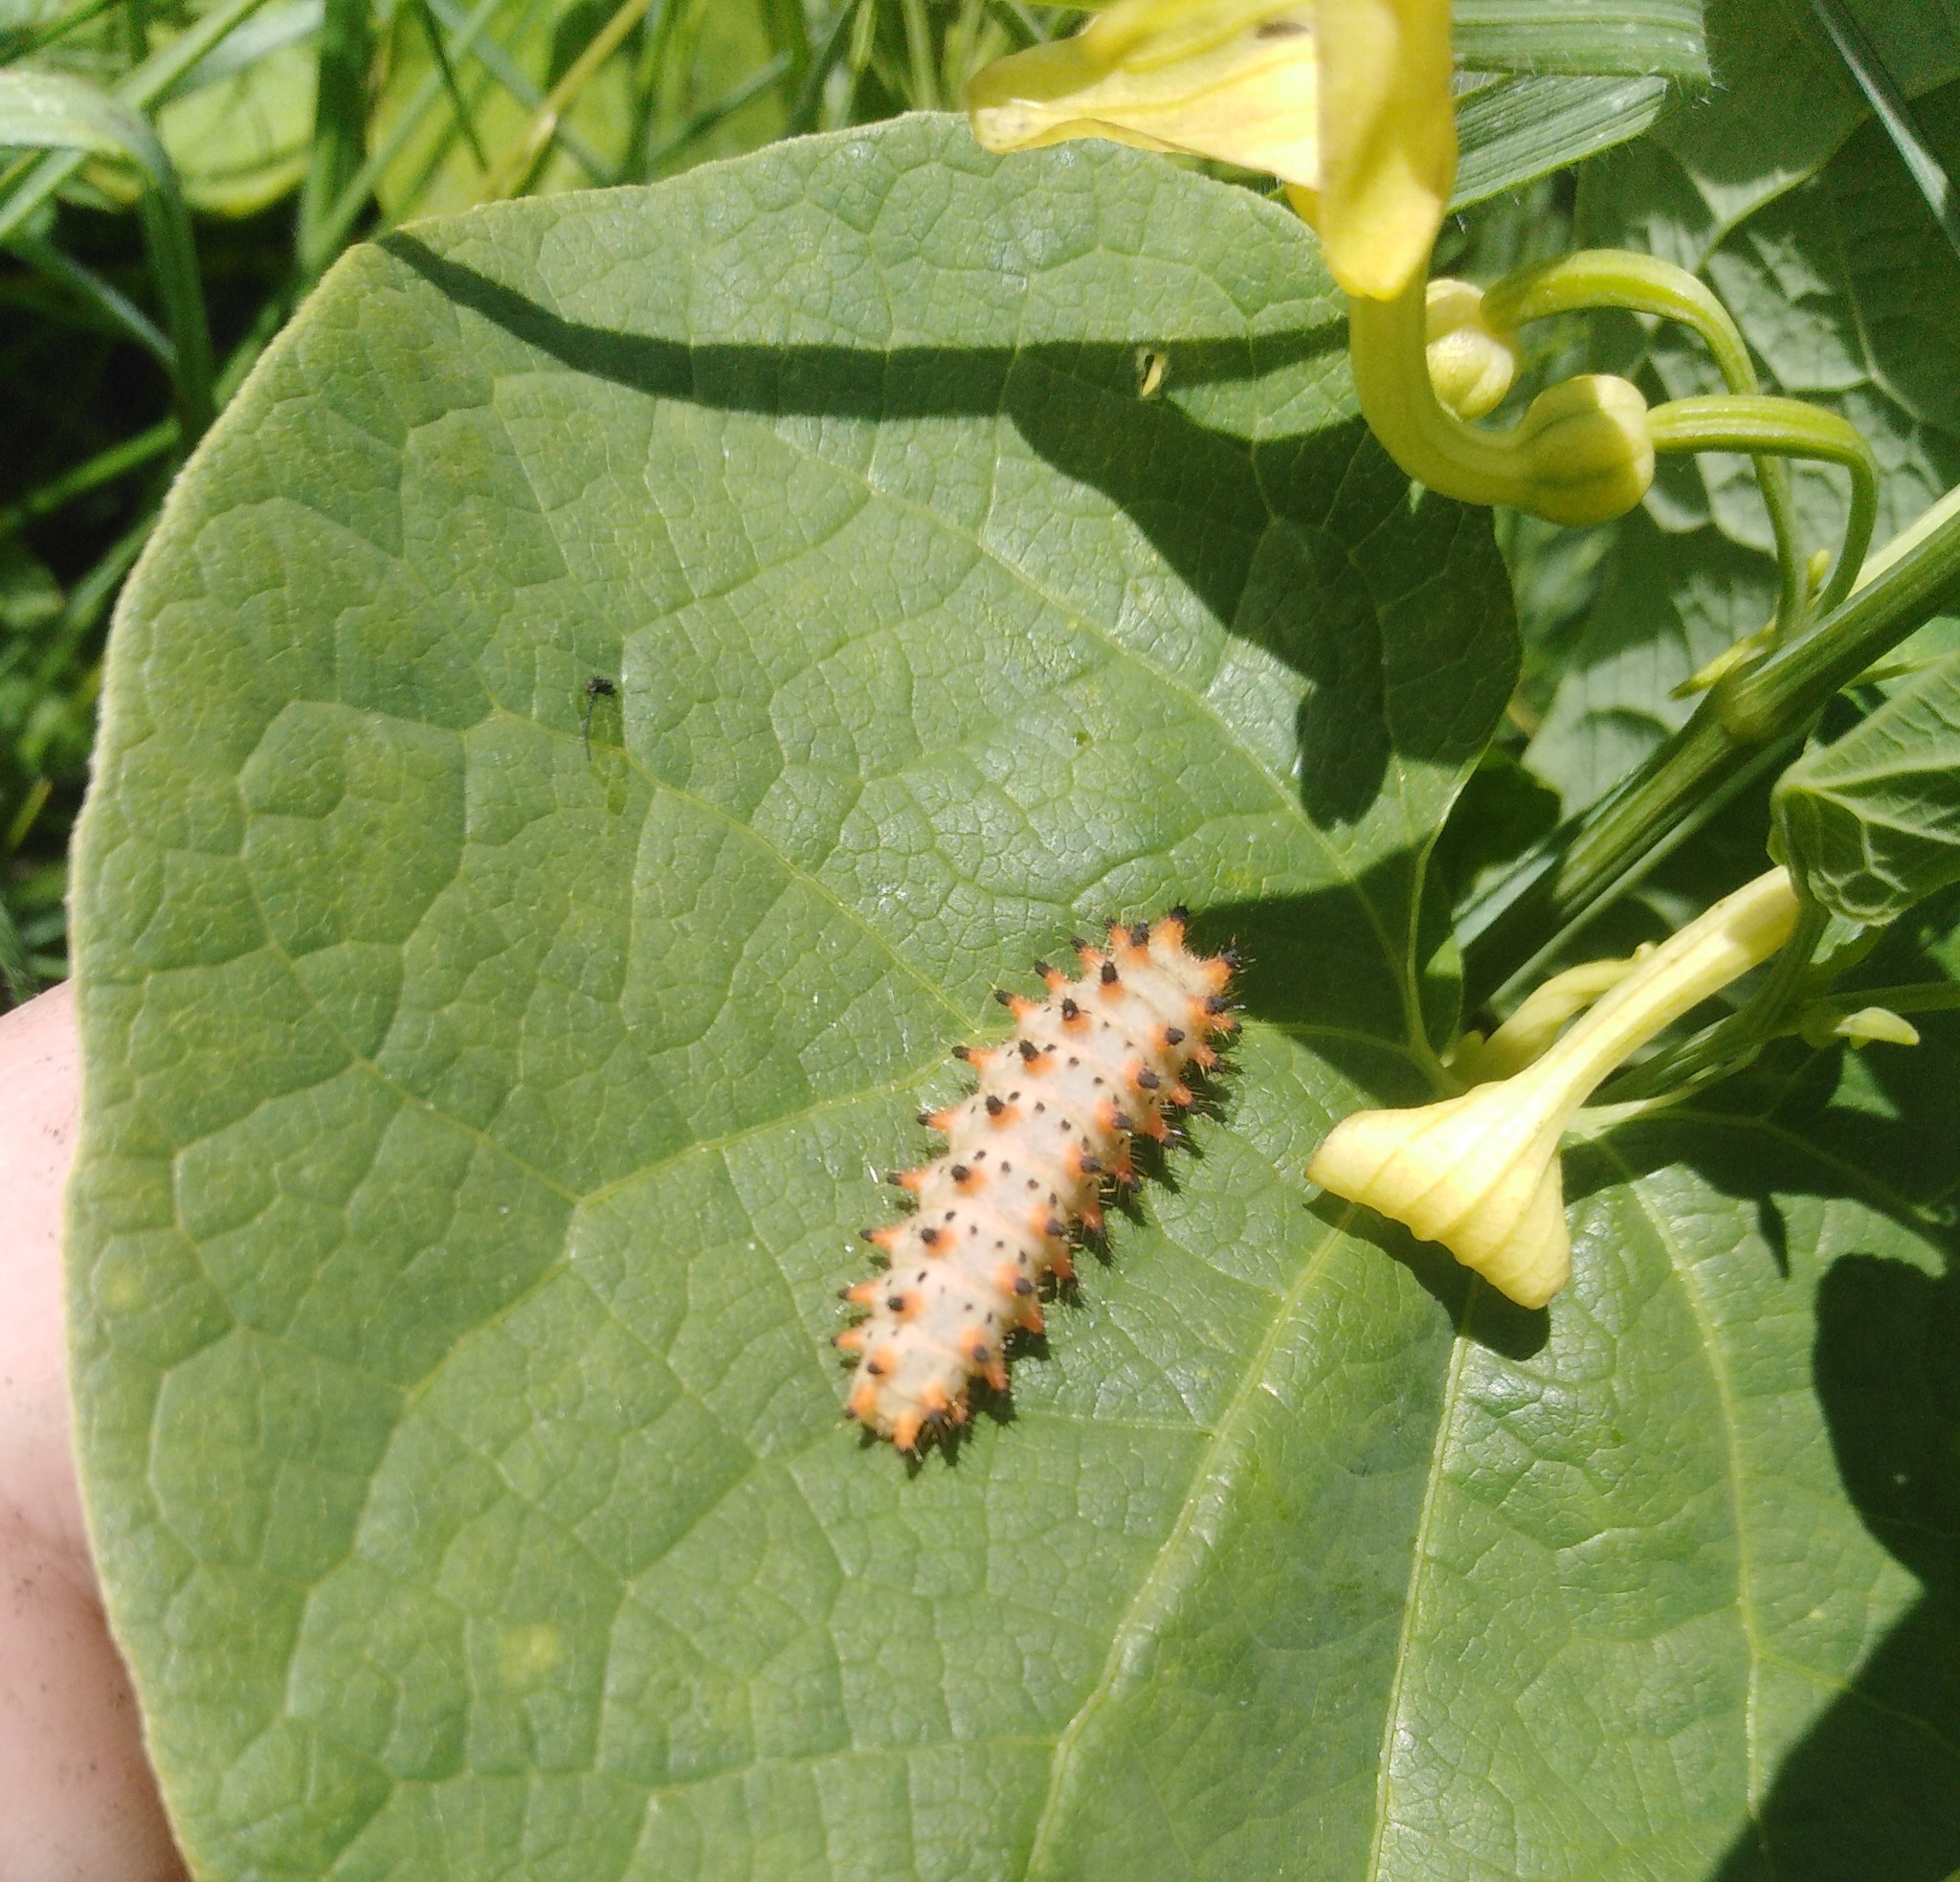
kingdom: Animalia
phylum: Arthropoda
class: Insecta
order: Lepidoptera
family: Papilionidae
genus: Zerynthia
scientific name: Zerynthia polyxena
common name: Southern festoon
